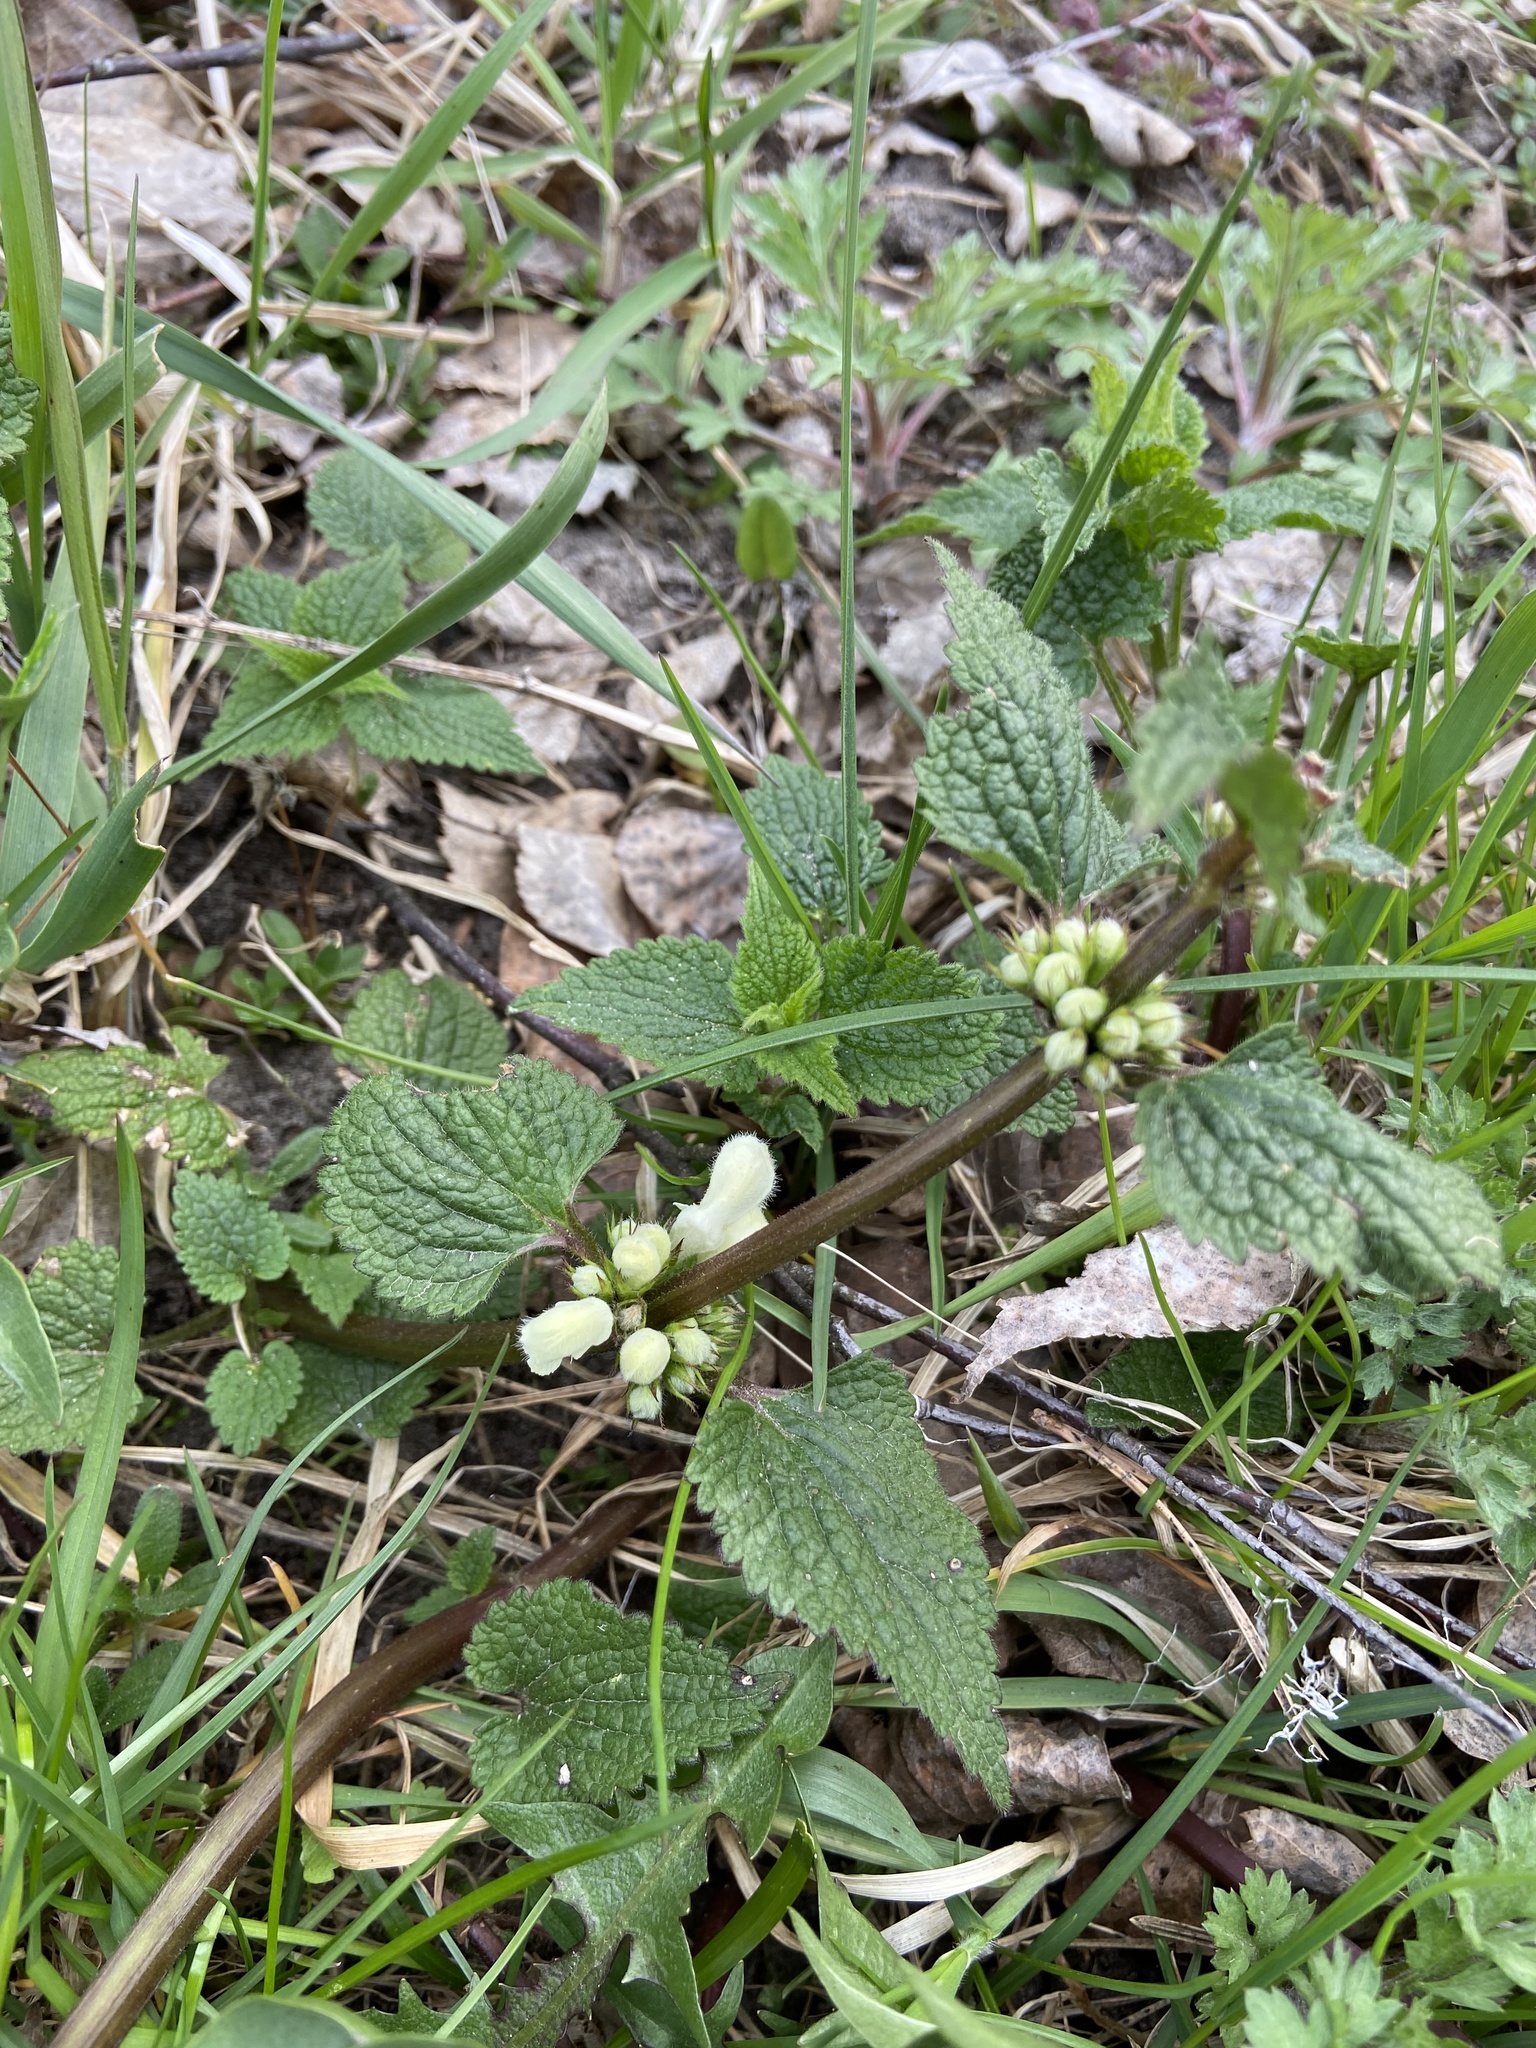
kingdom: Plantae
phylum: Tracheophyta
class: Magnoliopsida
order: Lamiales
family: Lamiaceae
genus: Lamium
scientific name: Lamium album
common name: White dead-nettle
